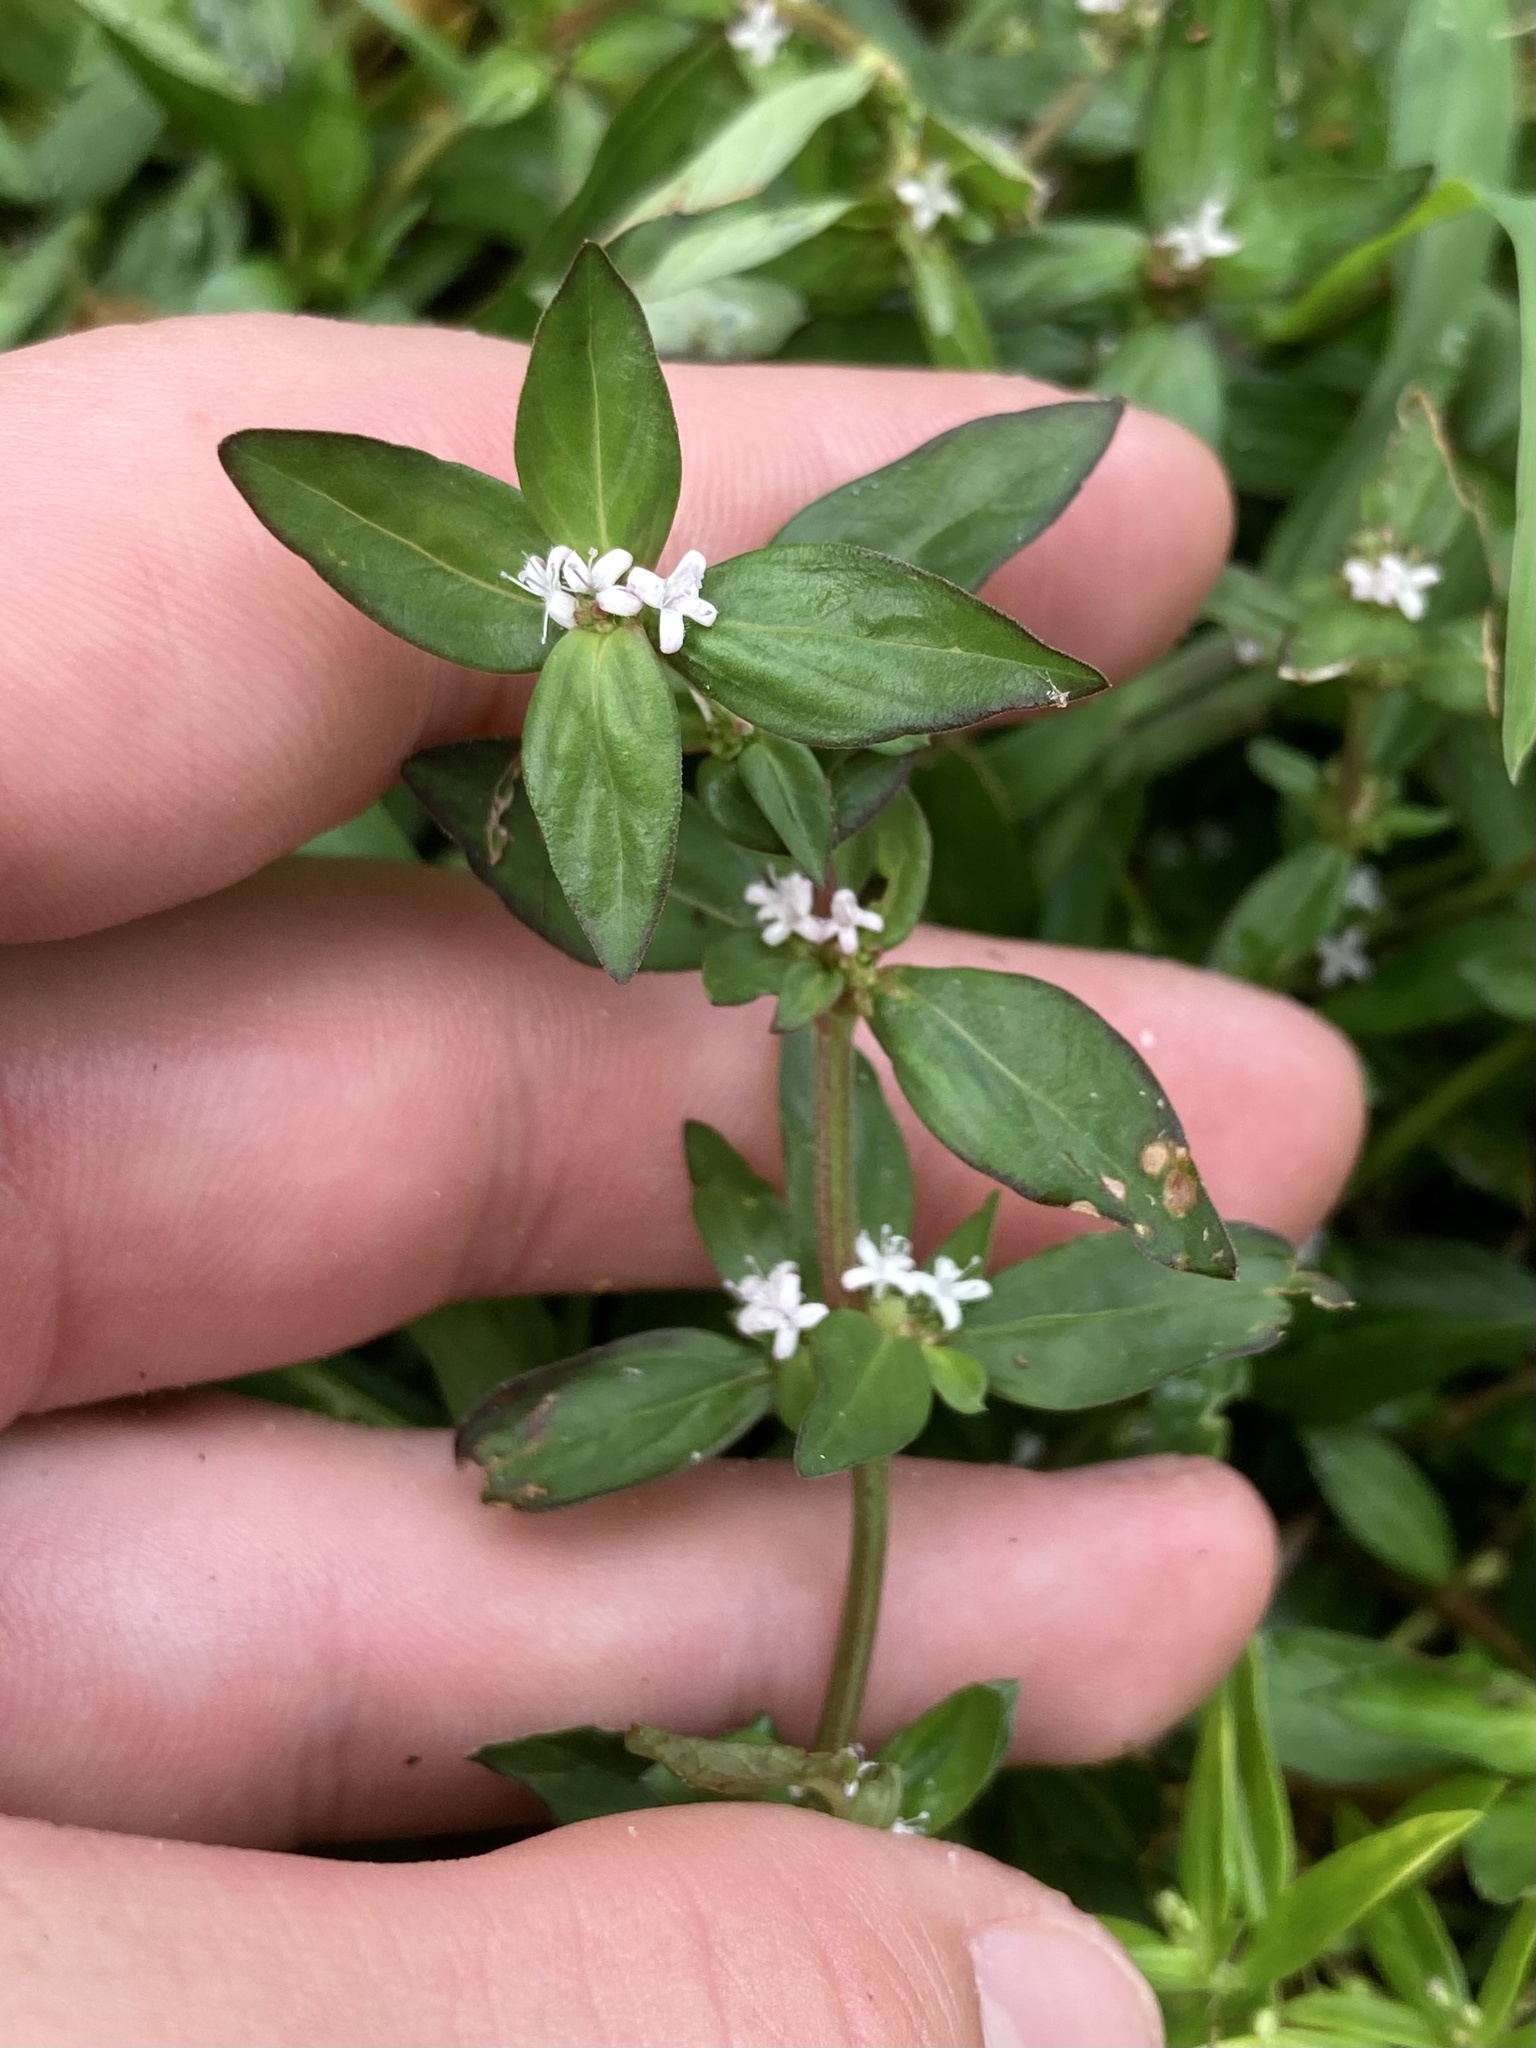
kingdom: Plantae
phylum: Tracheophyta
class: Magnoliopsida
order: Gentianales
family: Rubiaceae
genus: Spermacoce
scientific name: Spermacoce remota
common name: Woodland false buttonweed
